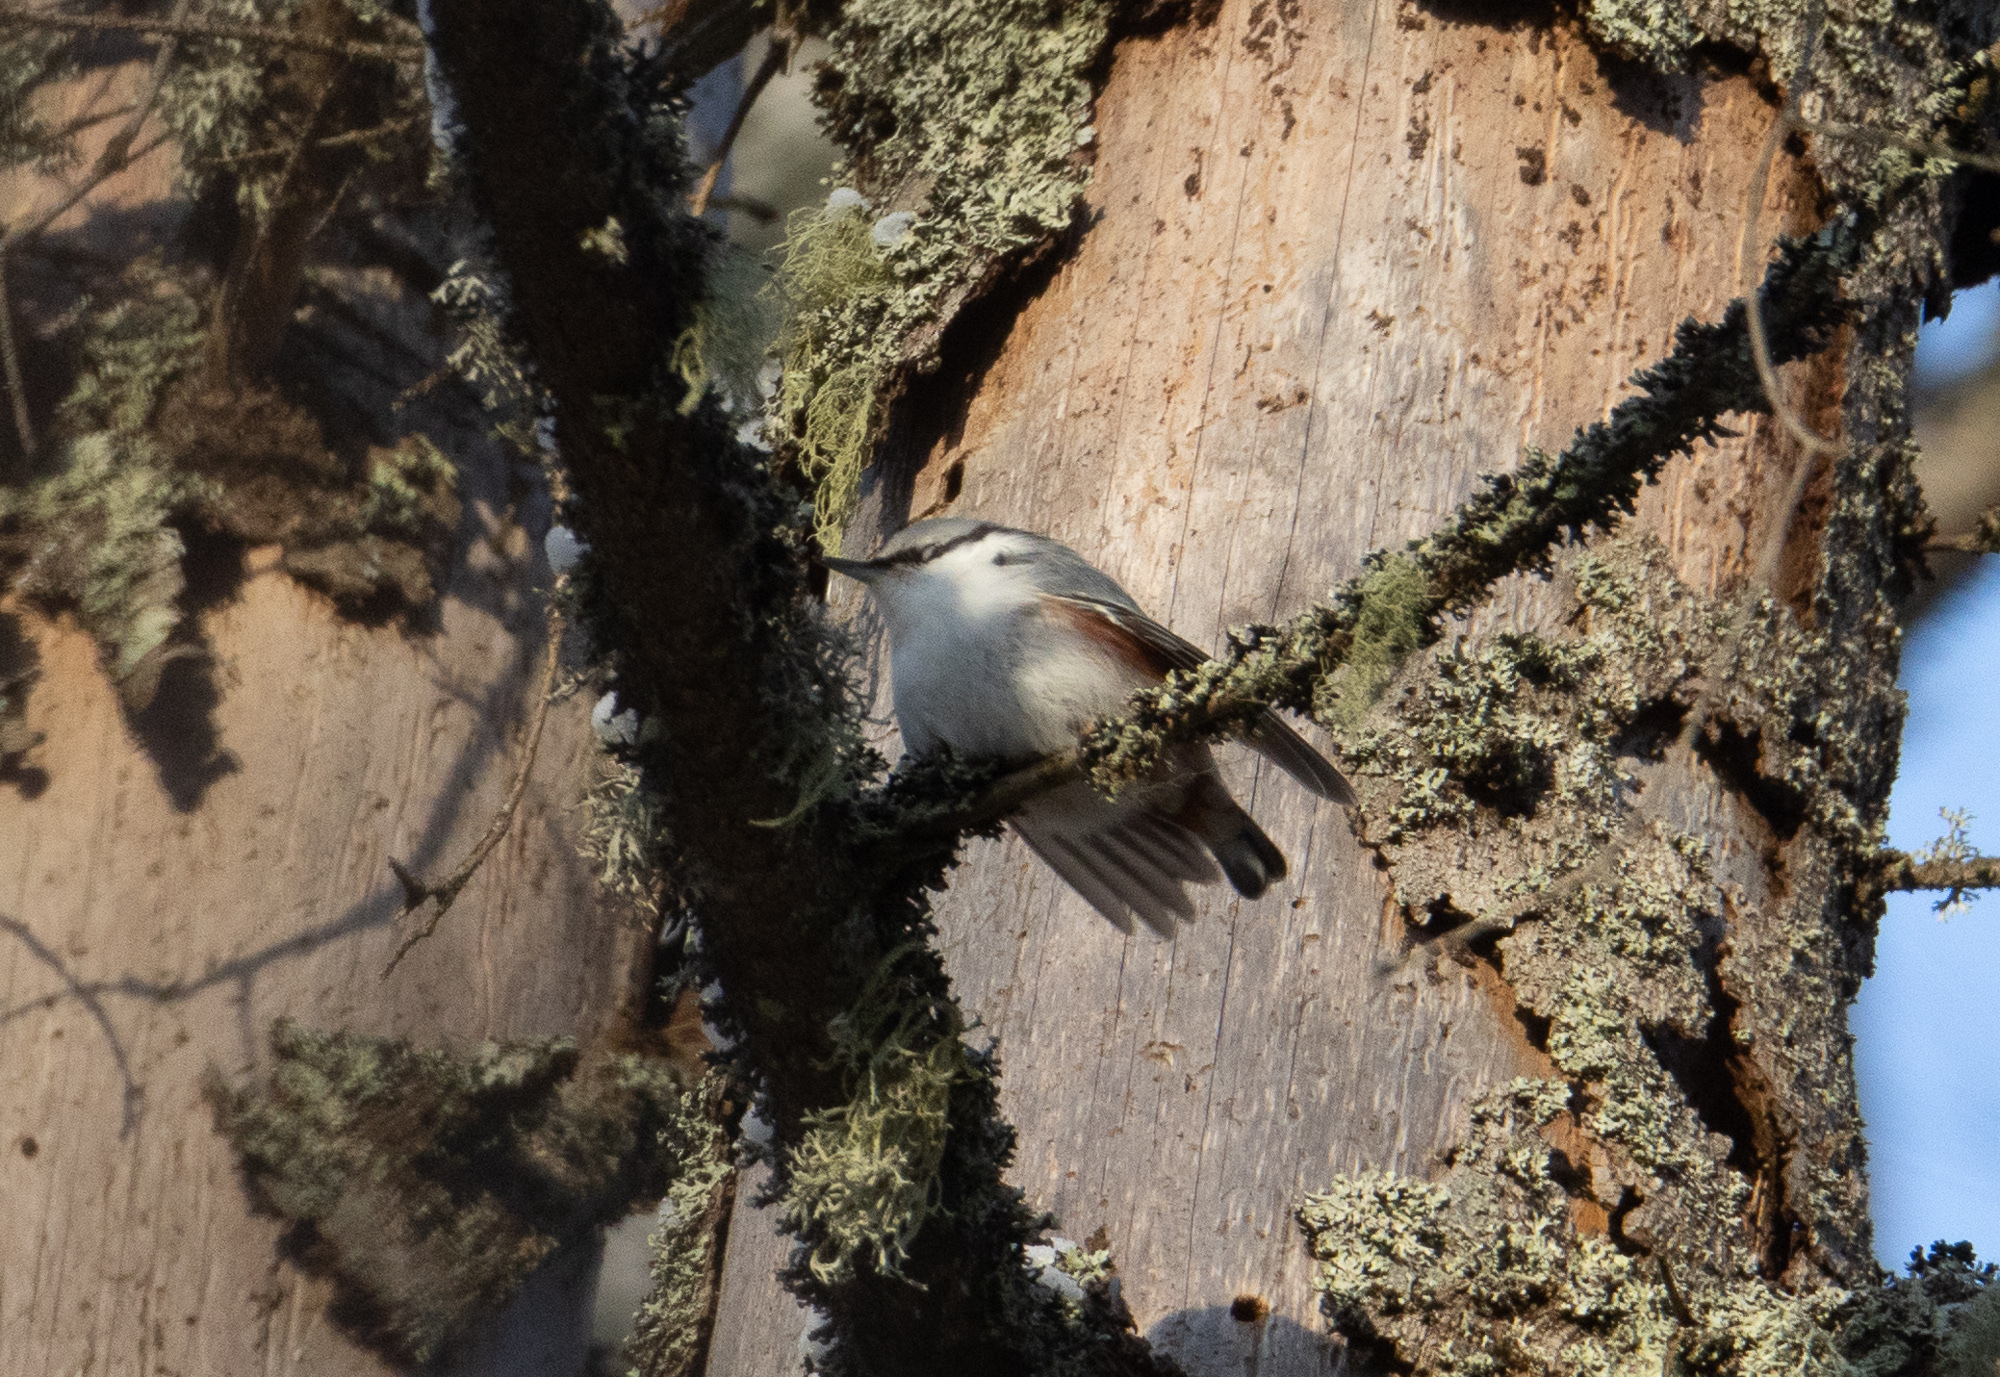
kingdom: Animalia
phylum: Chordata
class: Aves
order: Passeriformes
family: Sittidae
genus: Sitta
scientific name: Sitta europaea
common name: Eurasian nuthatch
